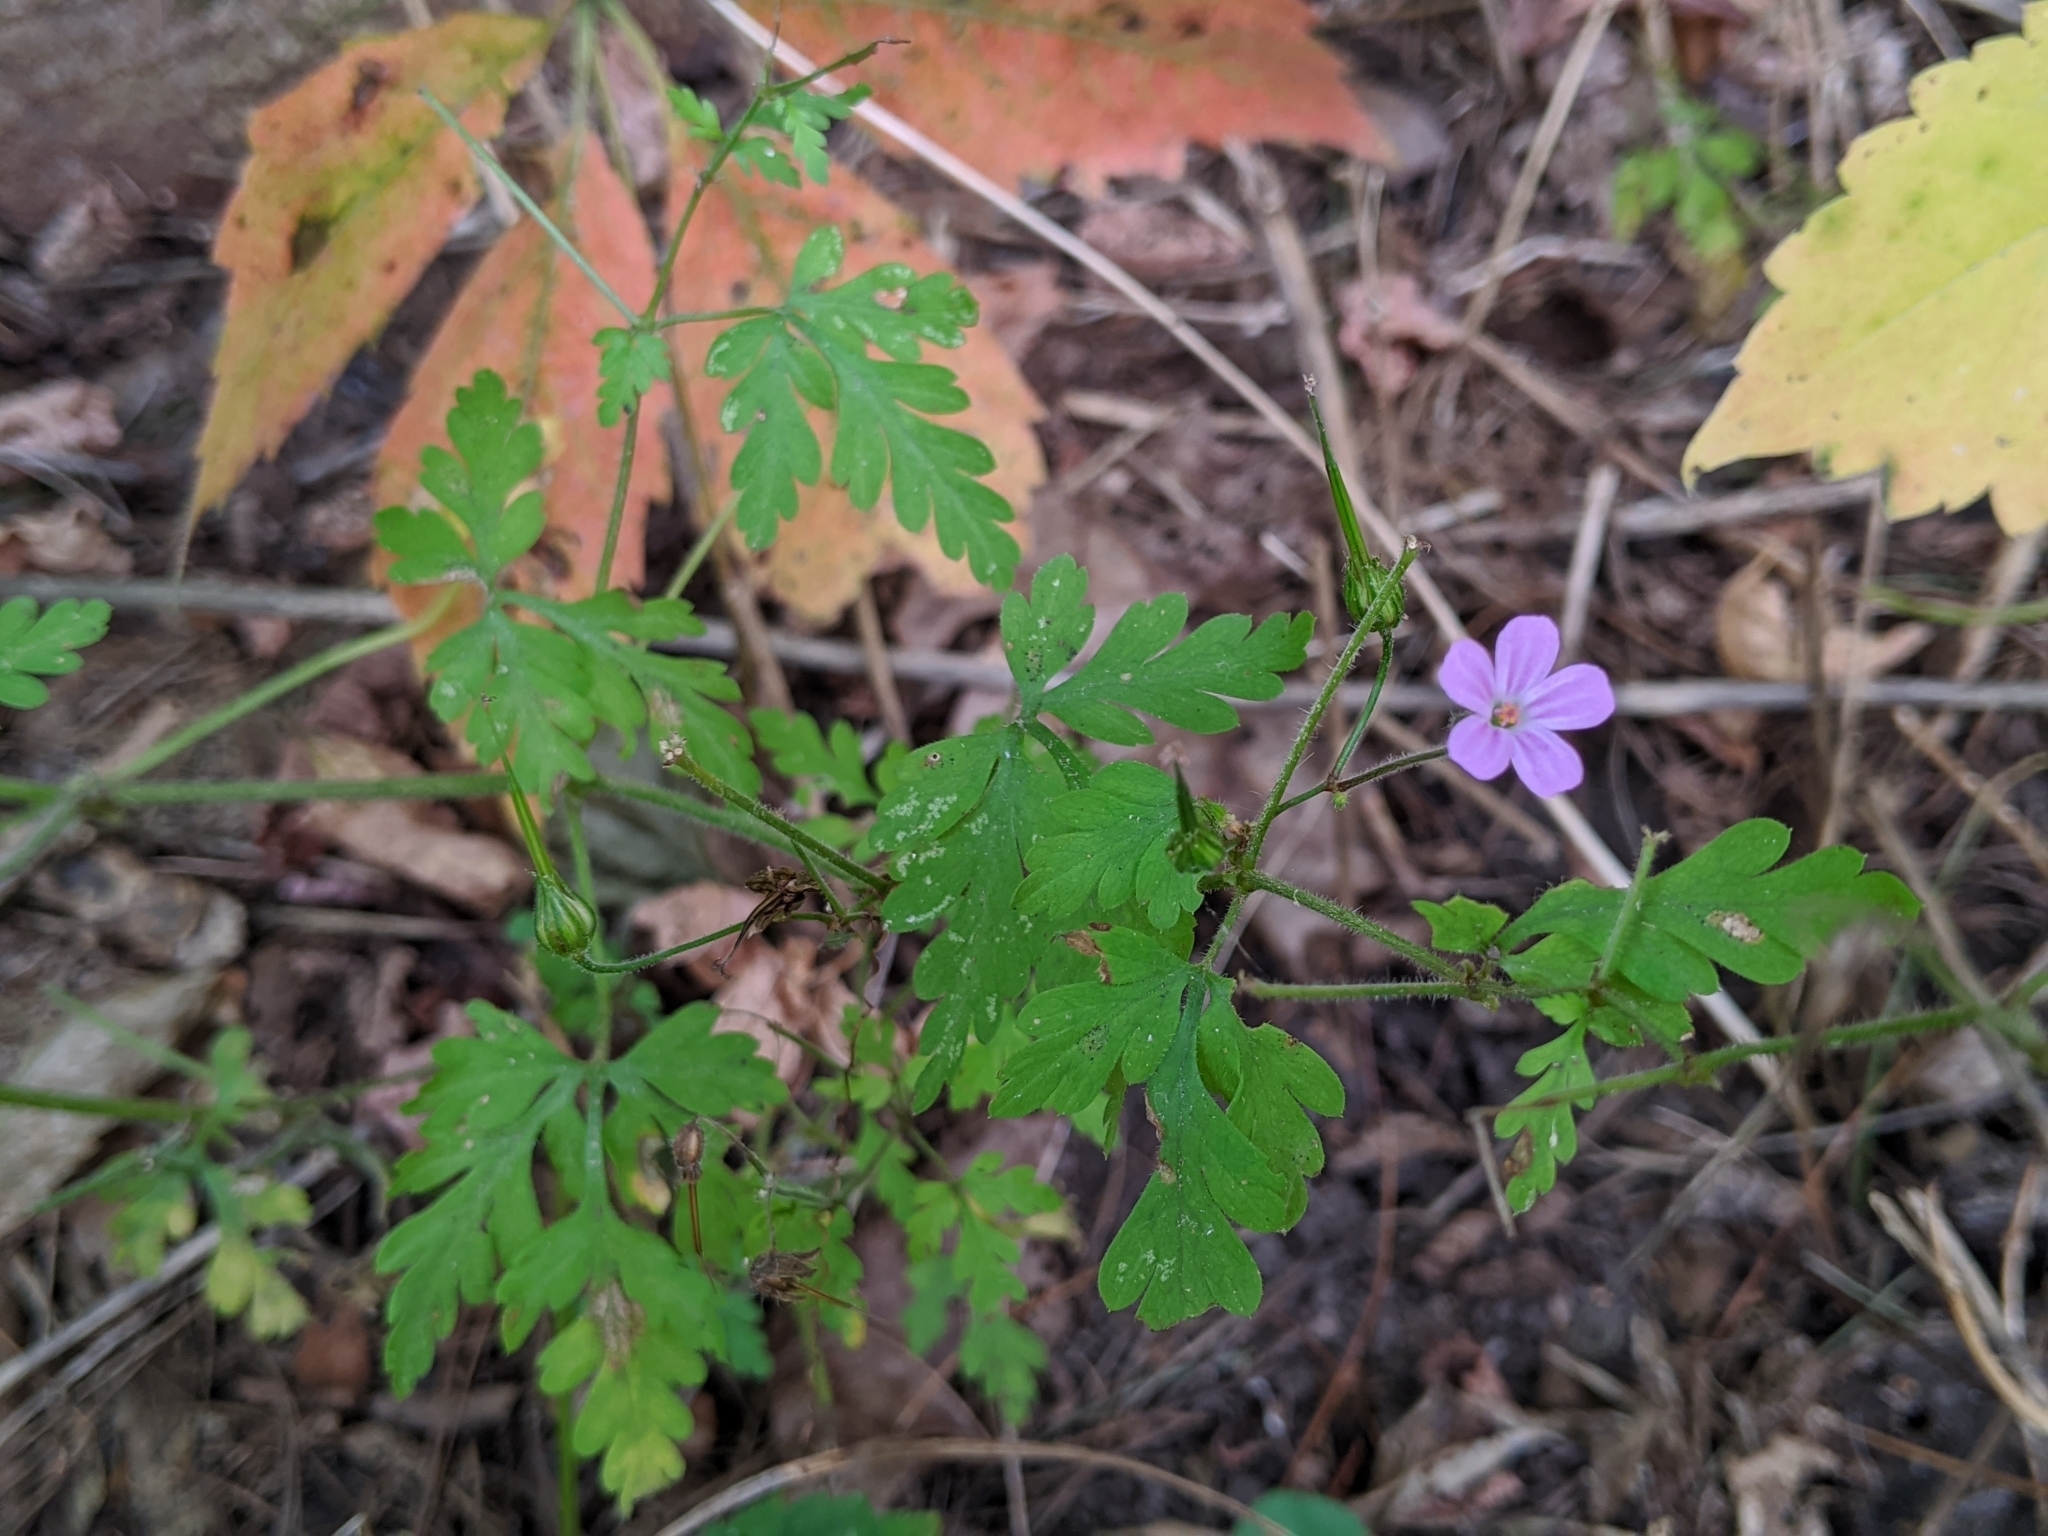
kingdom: Plantae
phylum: Tracheophyta
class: Magnoliopsida
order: Geraniales
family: Geraniaceae
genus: Geranium
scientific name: Geranium robertianum
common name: Herb-robert
